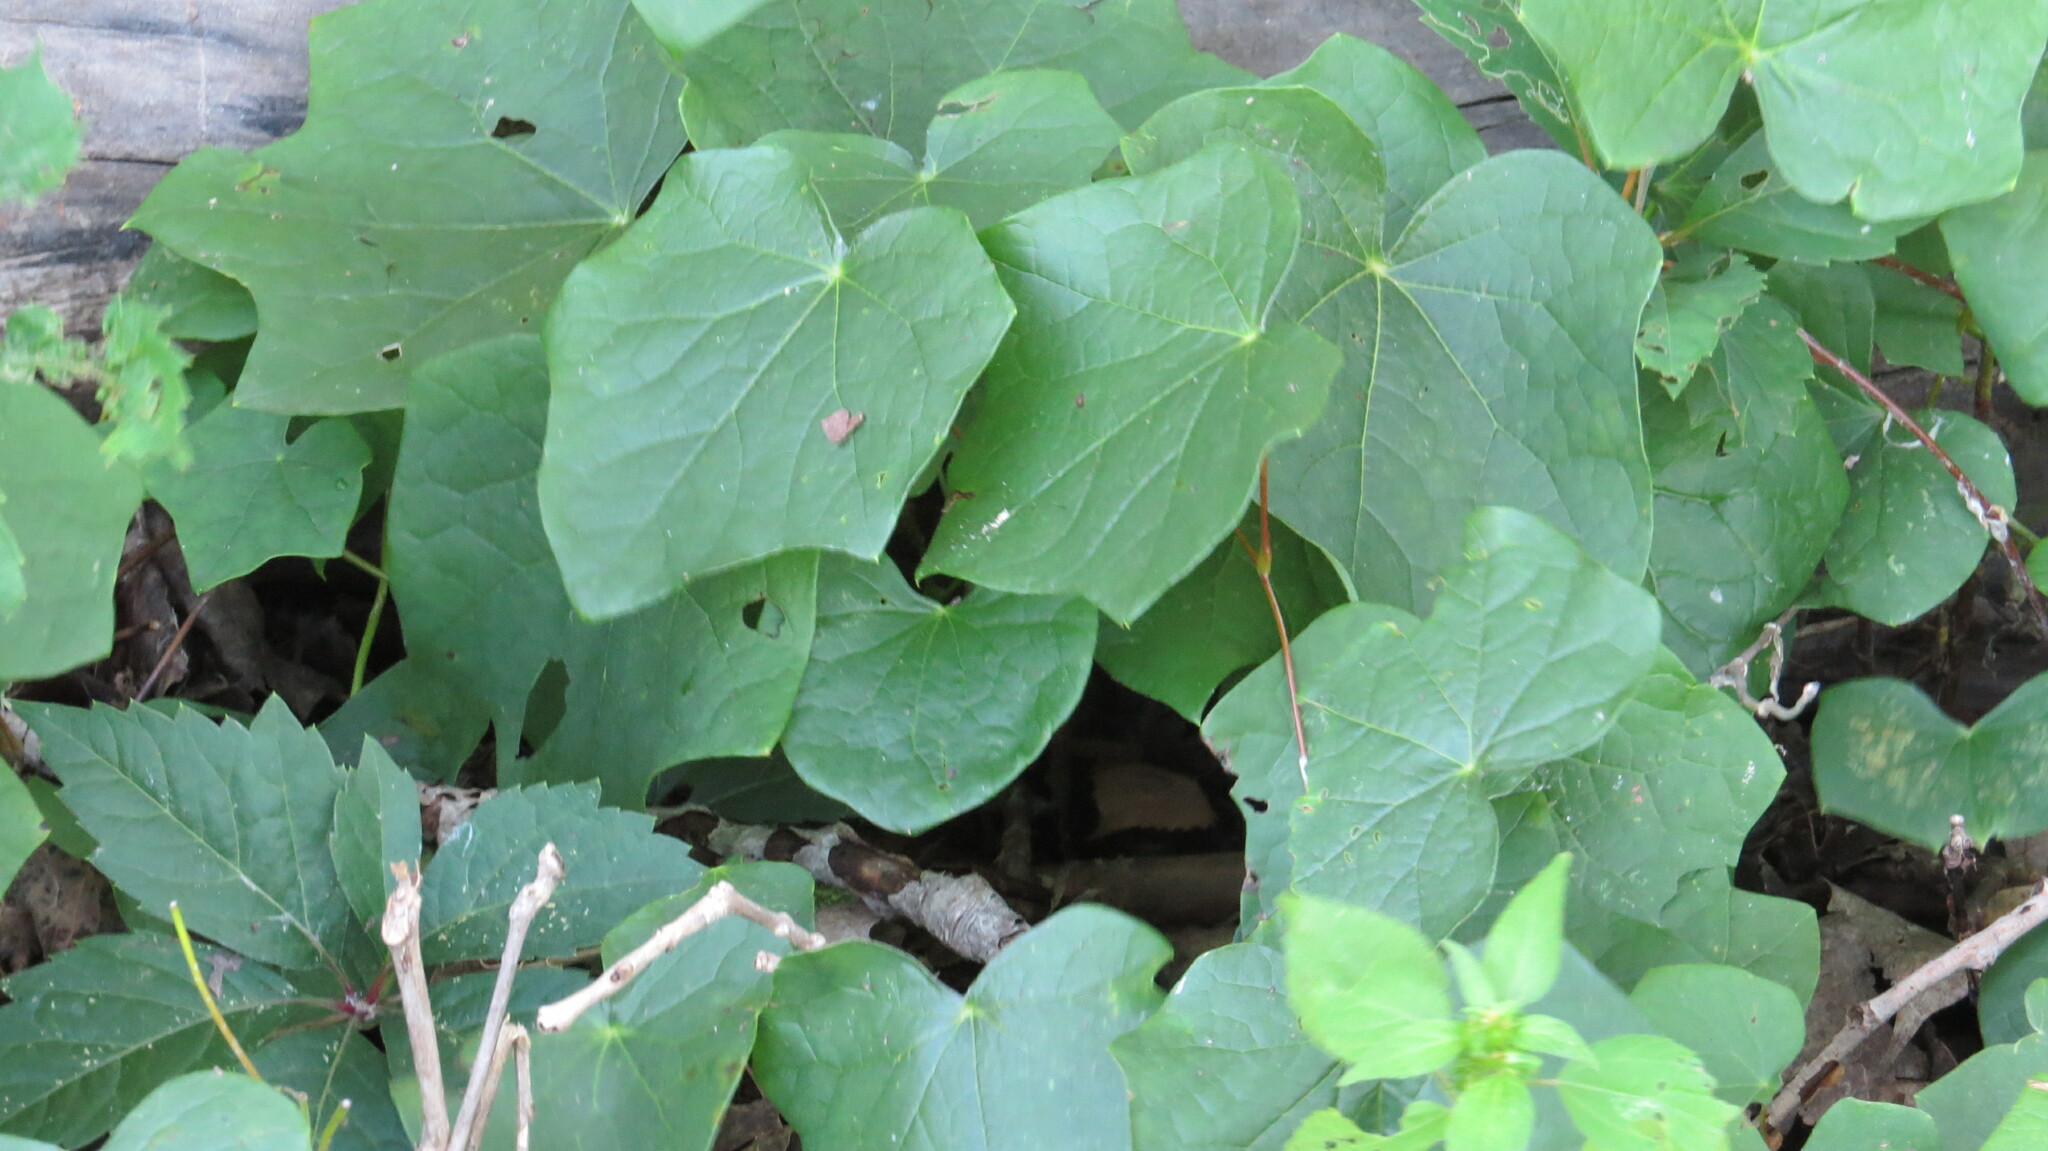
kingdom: Plantae
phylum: Tracheophyta
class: Magnoliopsida
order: Ranunculales
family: Menispermaceae
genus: Menispermum
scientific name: Menispermum canadense
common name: Moonseed
